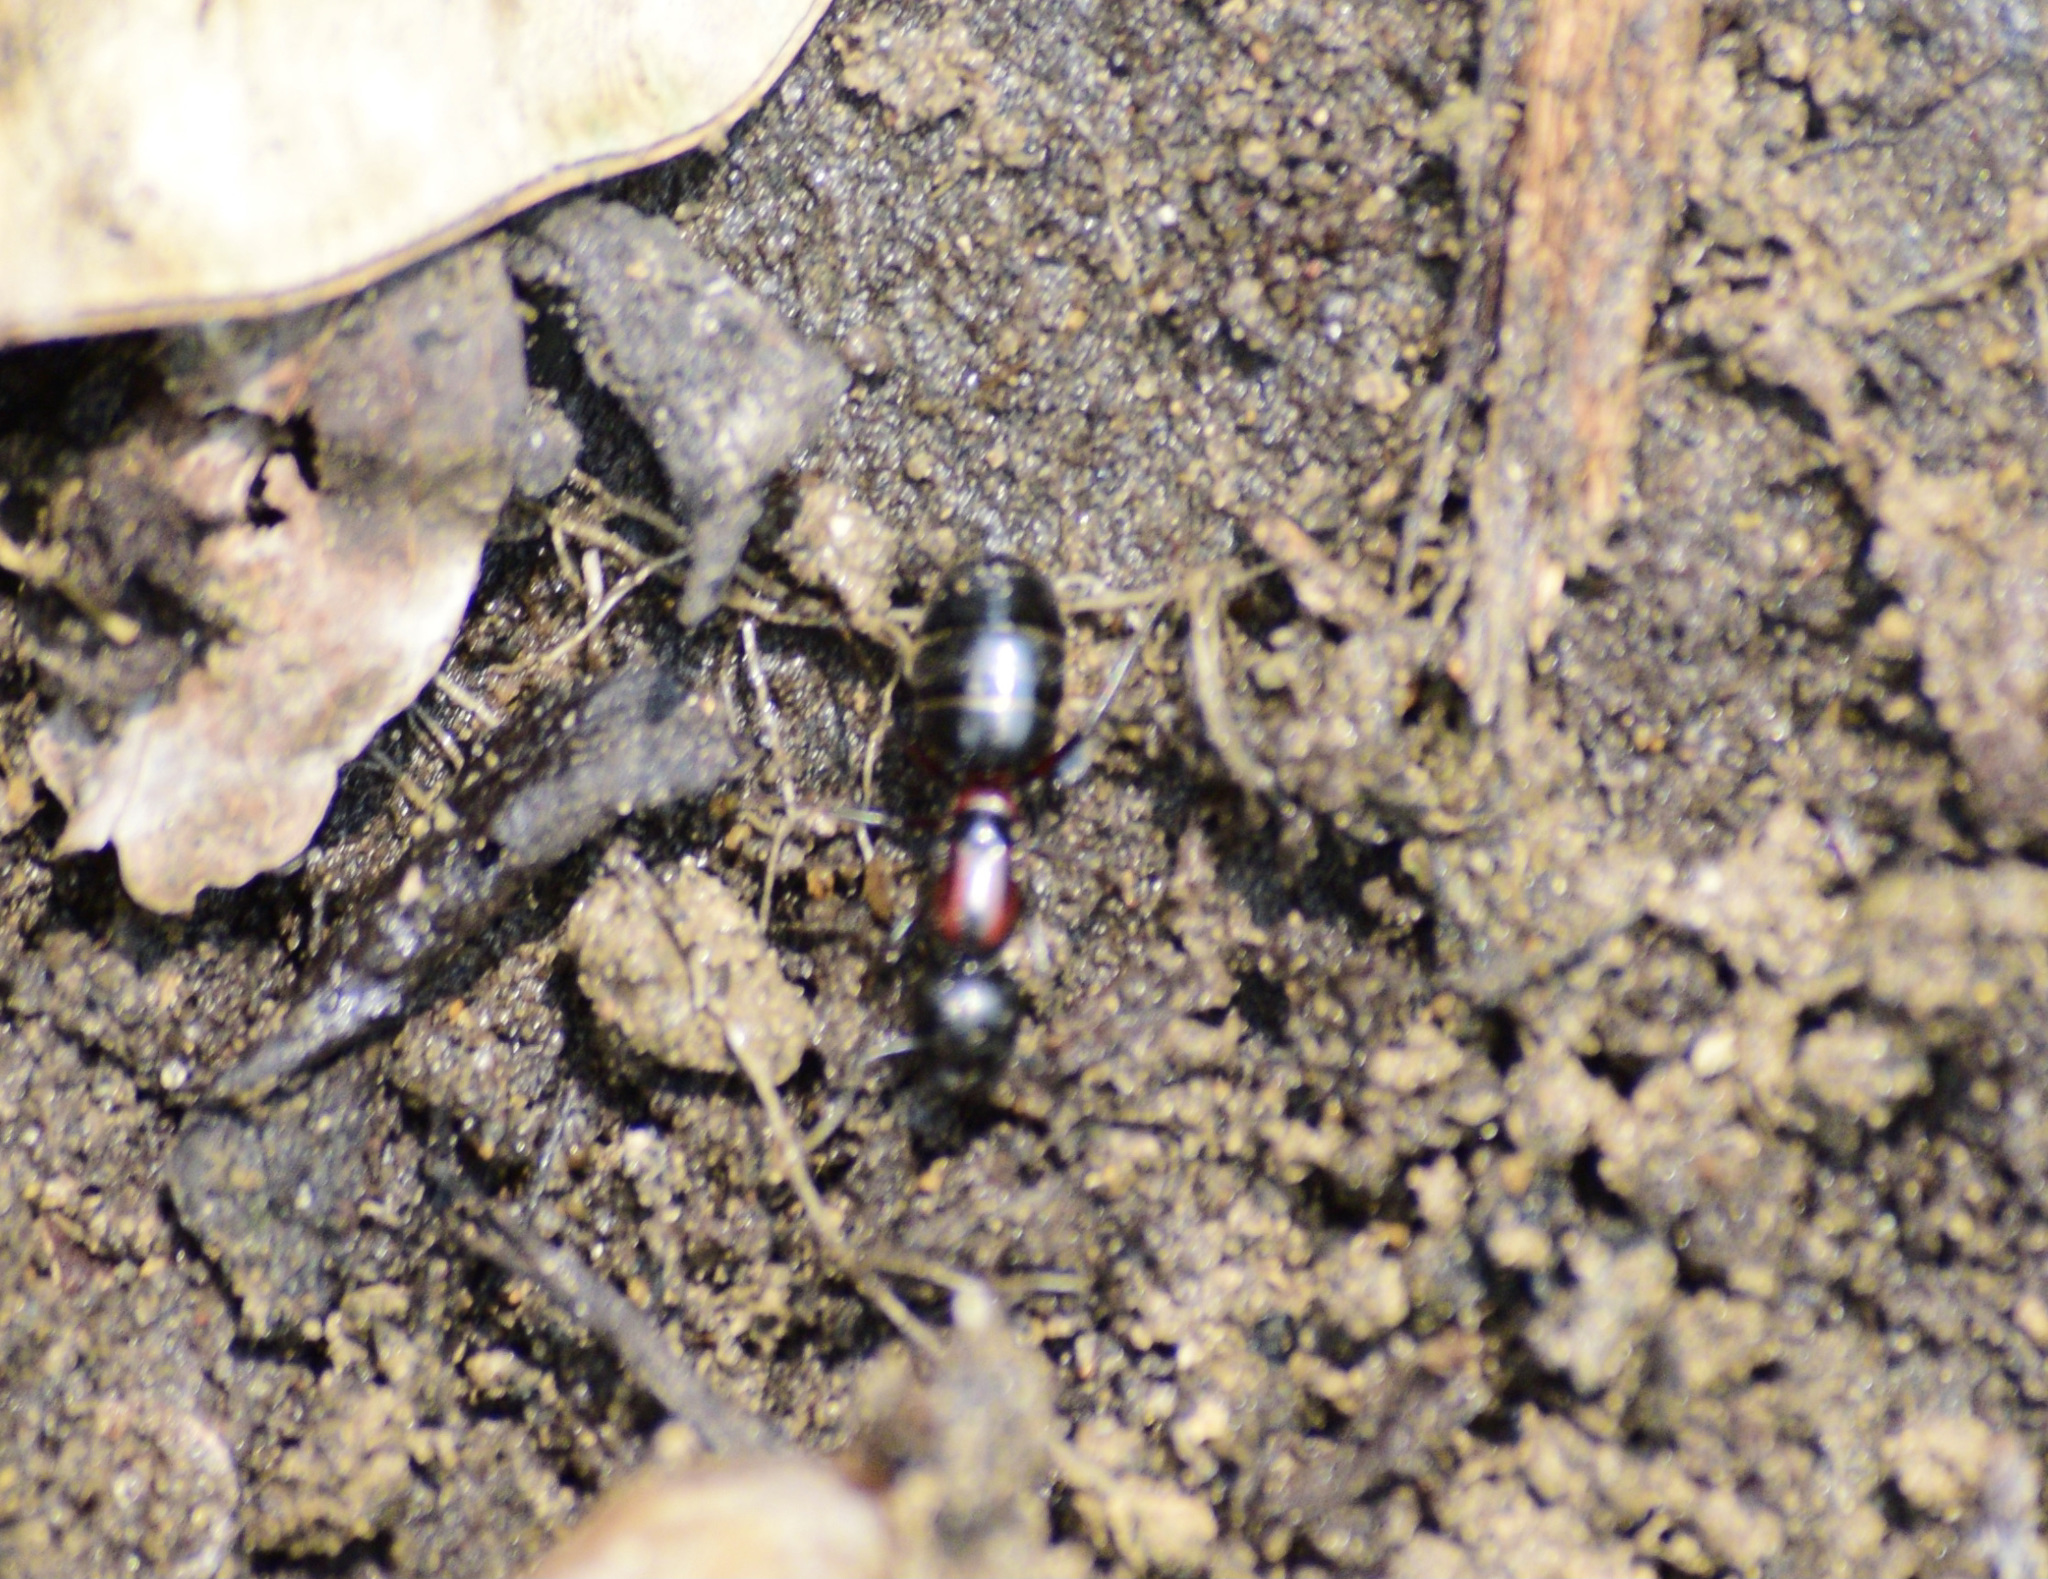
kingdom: Animalia
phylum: Arthropoda
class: Insecta
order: Hymenoptera
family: Formicidae
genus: Camponotus
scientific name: Camponotus novaeboracensis
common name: New york carpenter ant
